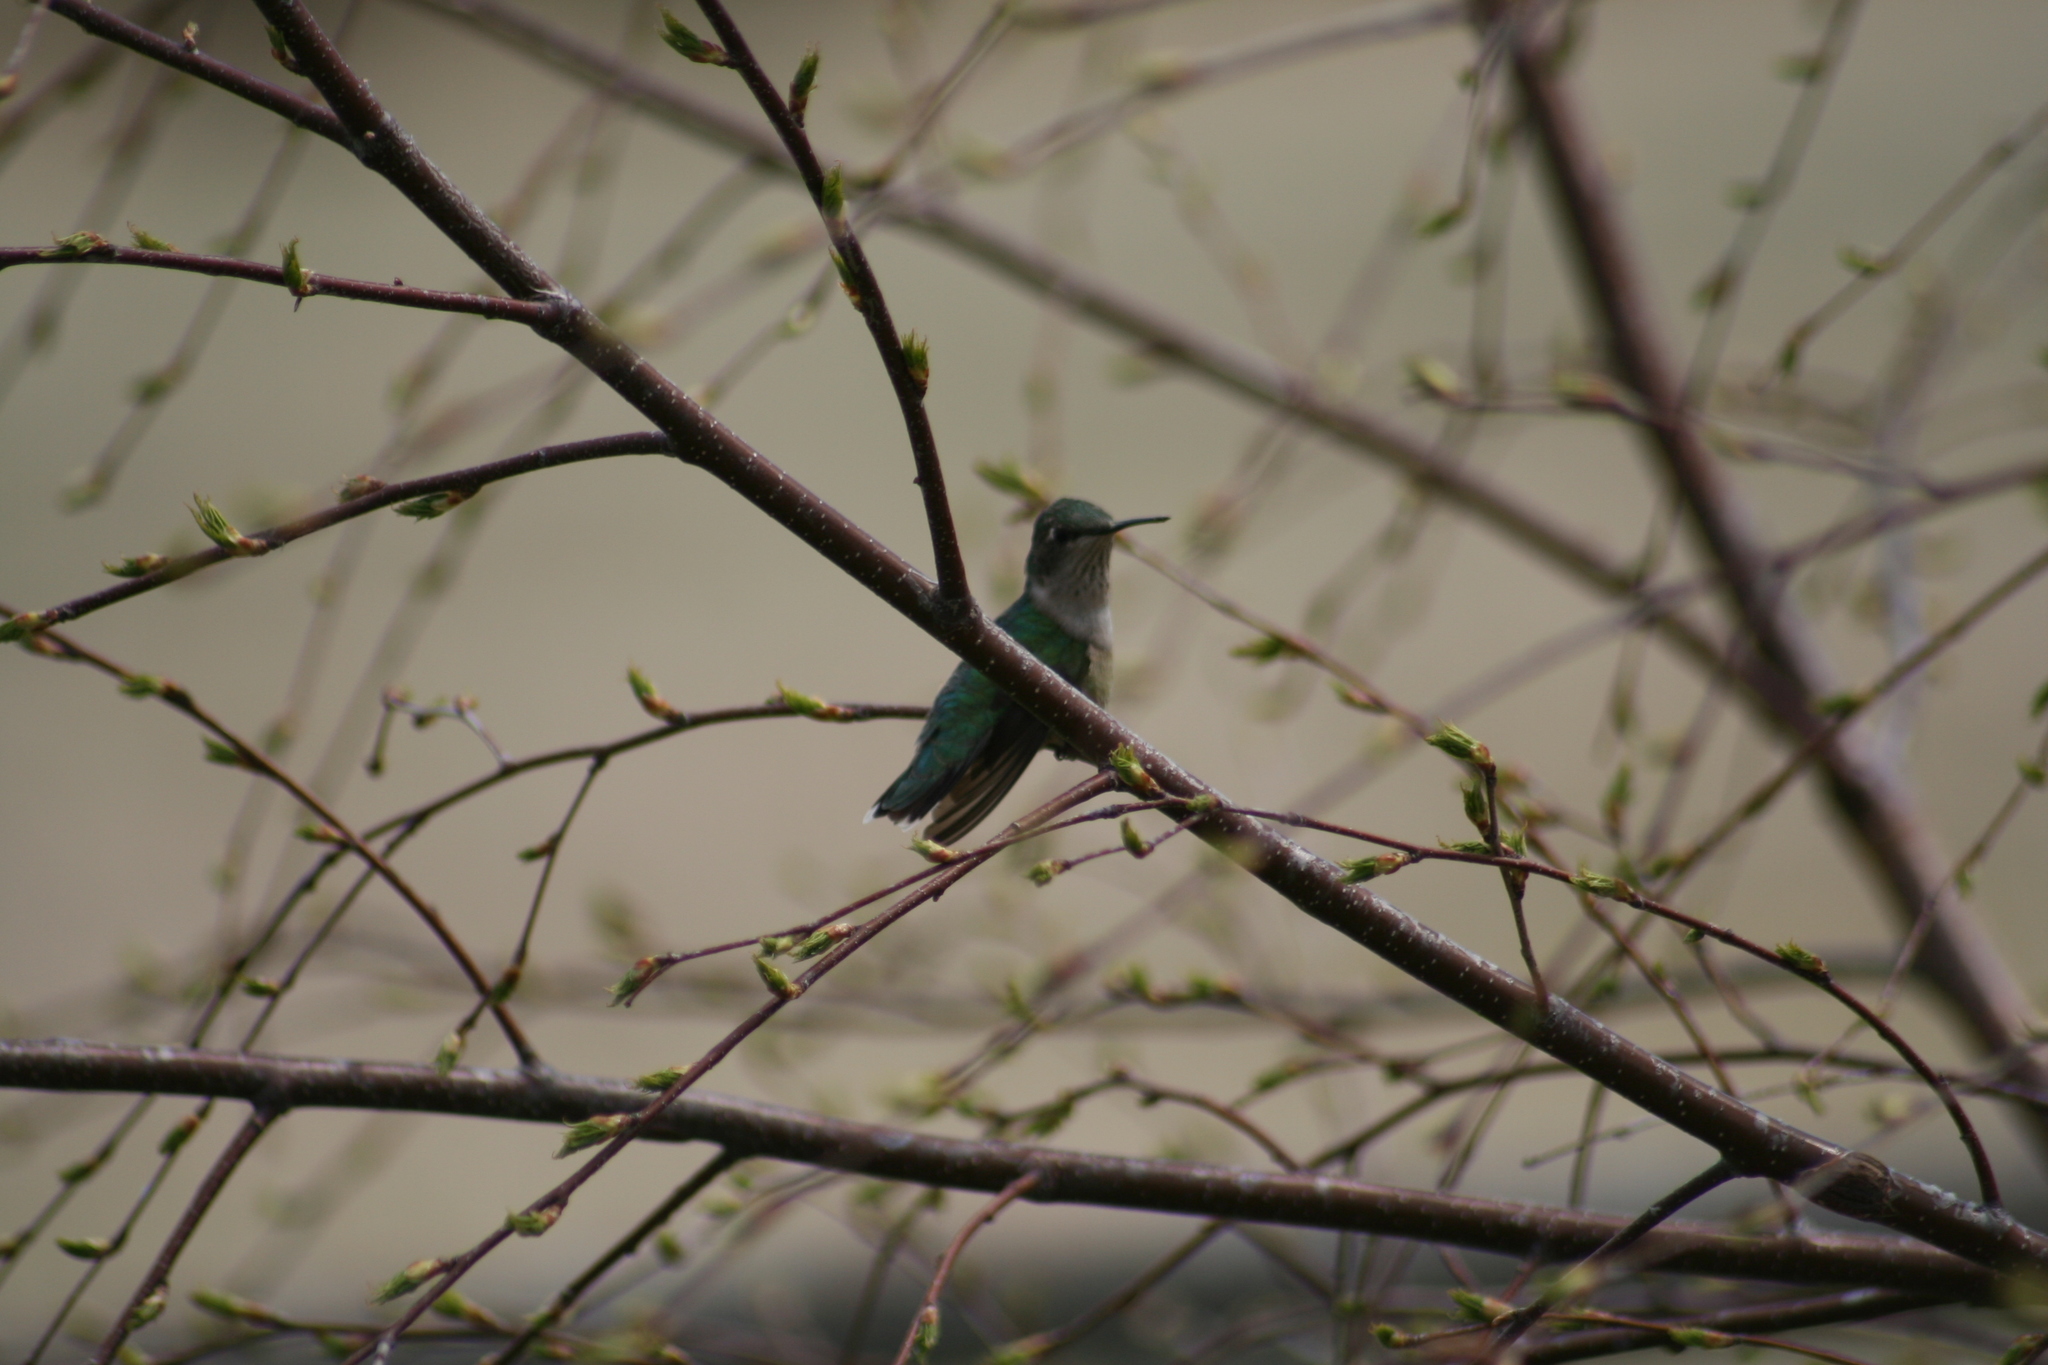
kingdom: Animalia
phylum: Chordata
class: Aves
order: Apodiformes
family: Trochilidae
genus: Archilochus
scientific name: Archilochus colubris
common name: Ruby-throated hummingbird
